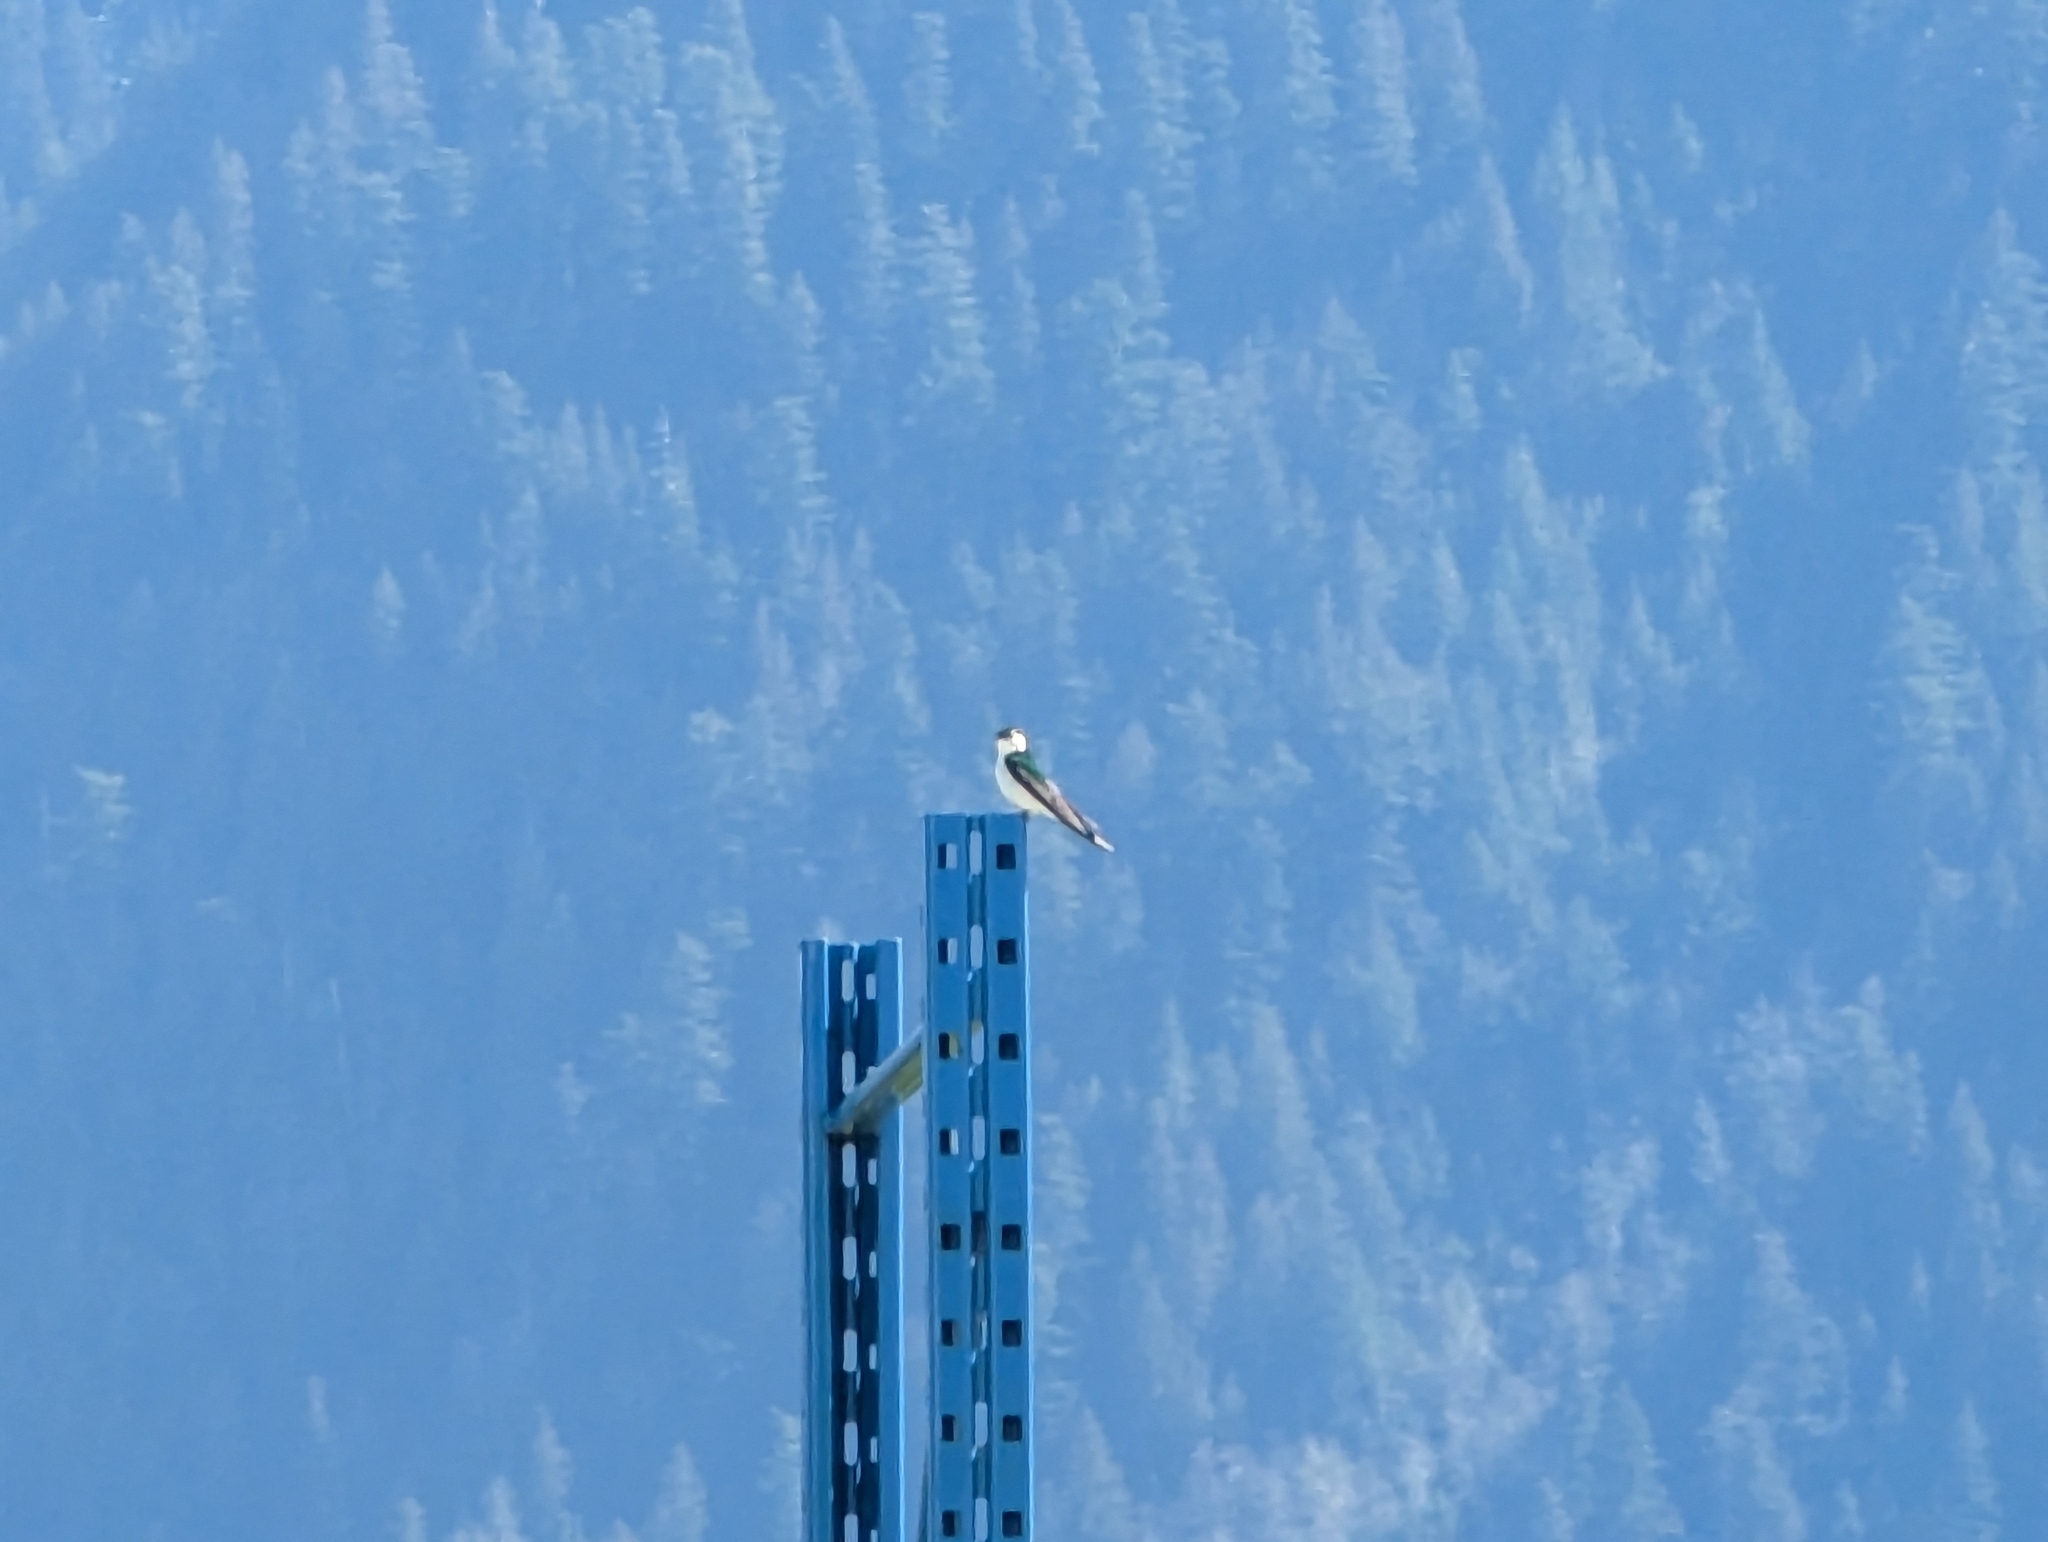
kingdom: Animalia
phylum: Chordata
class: Aves
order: Passeriformes
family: Hirundinidae
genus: Tachycineta
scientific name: Tachycineta thalassina
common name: Violet-green swallow
